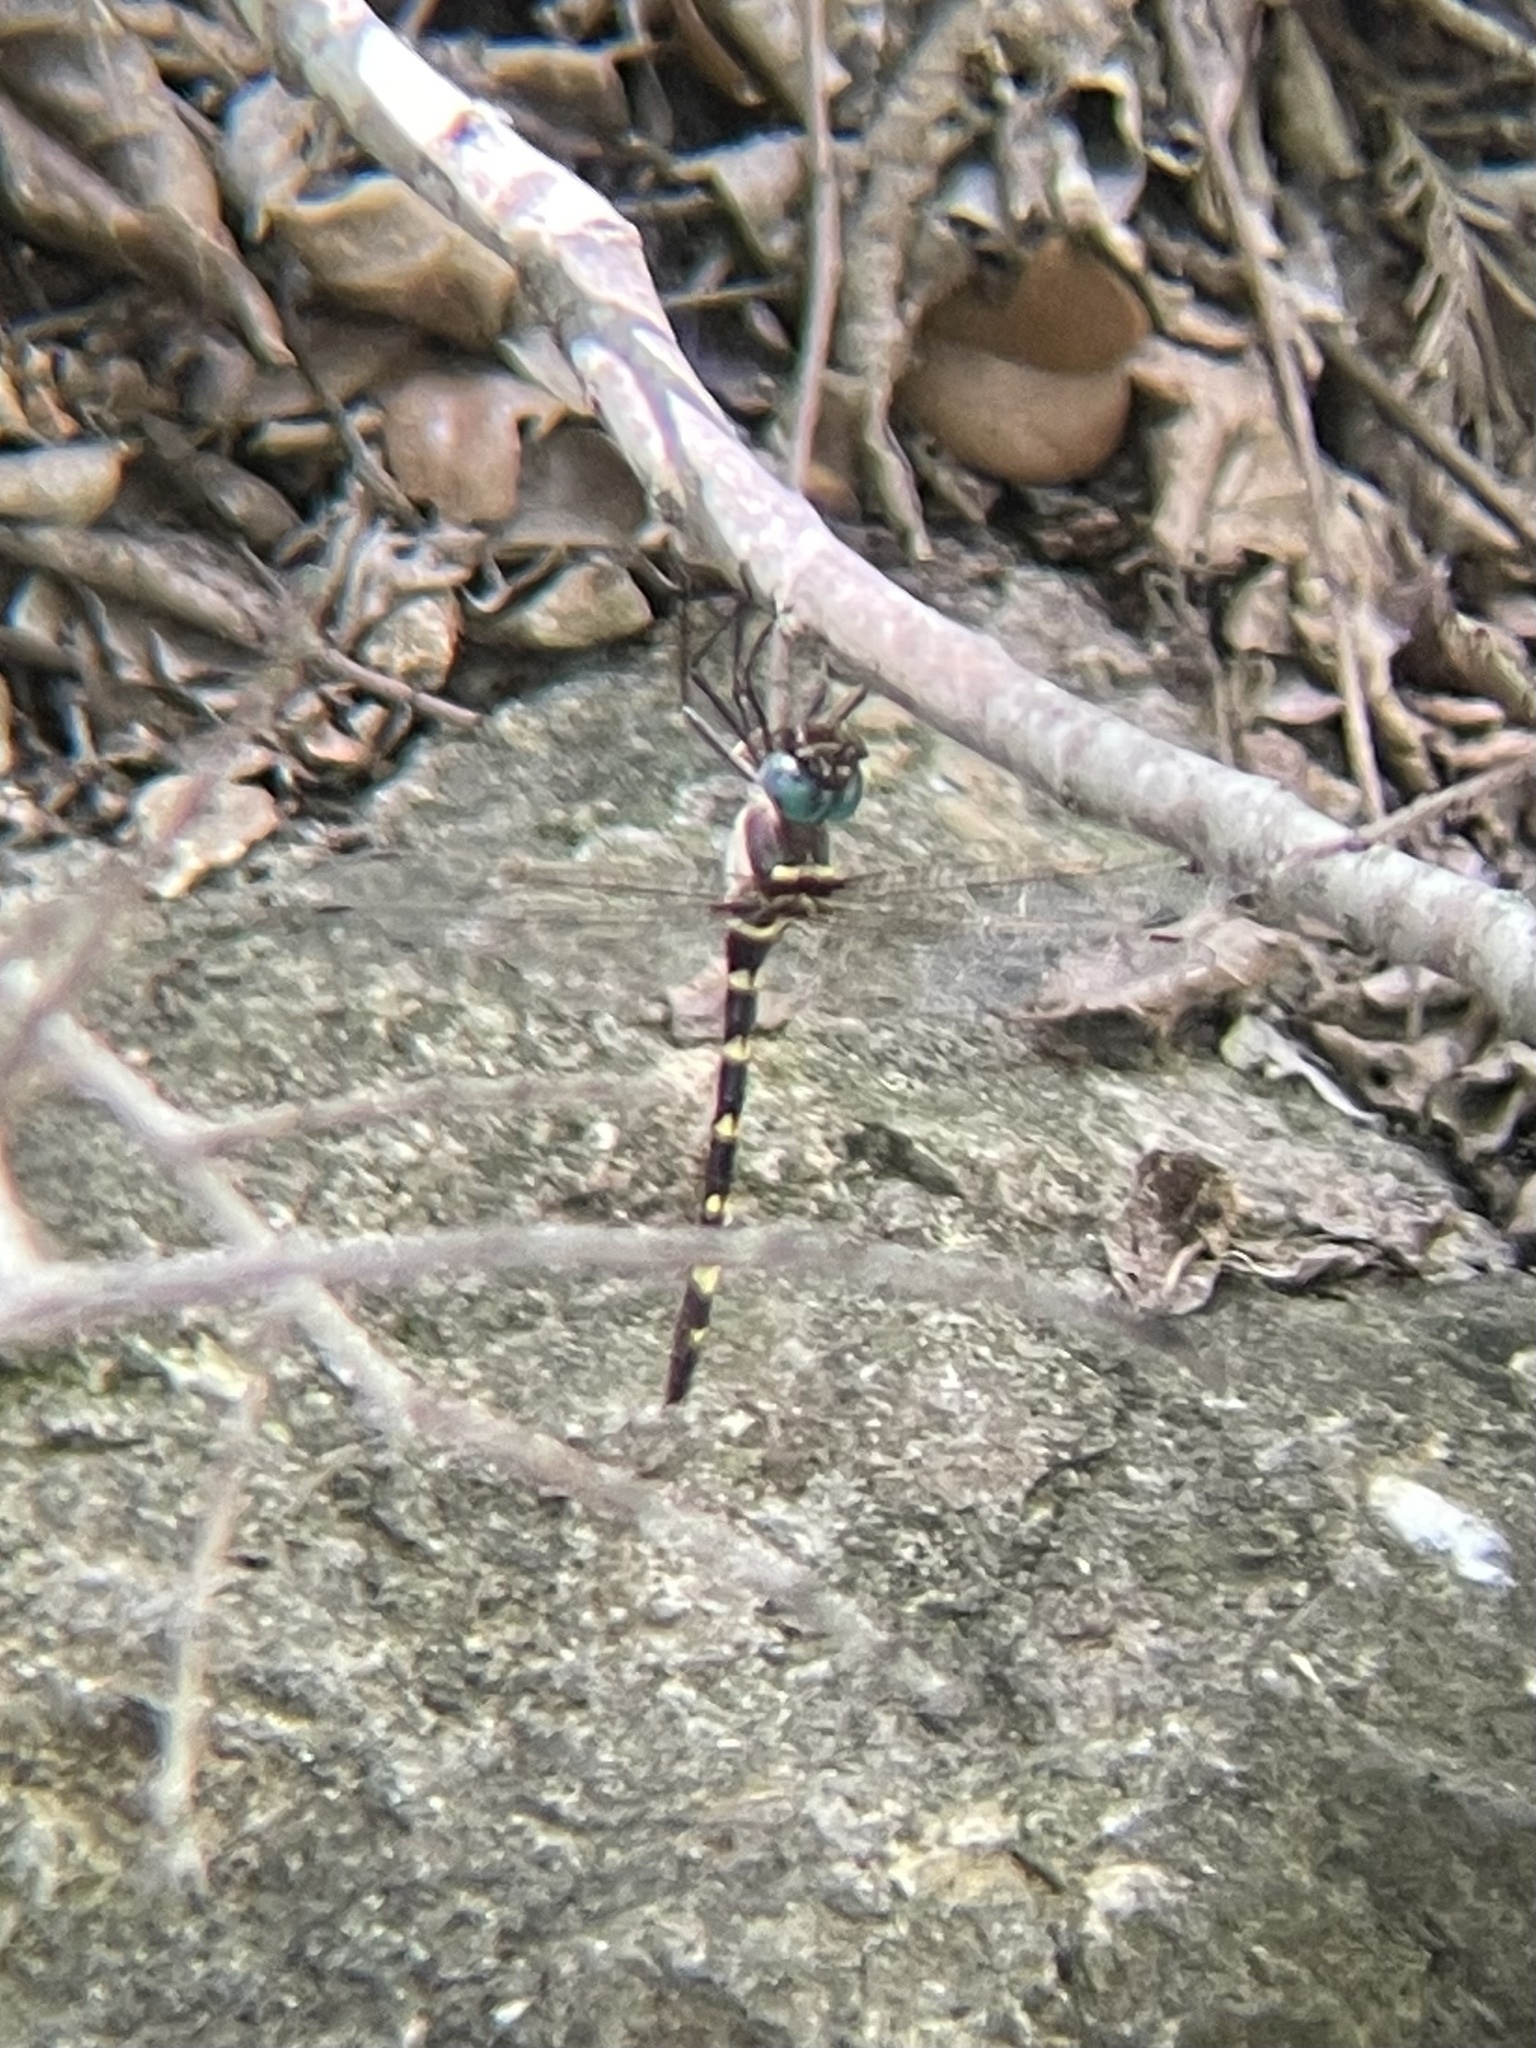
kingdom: Animalia
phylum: Arthropoda
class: Insecta
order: Odonata
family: Macromiidae
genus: Macromia
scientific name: Macromia illinoiensis
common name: Swift river cruiser
